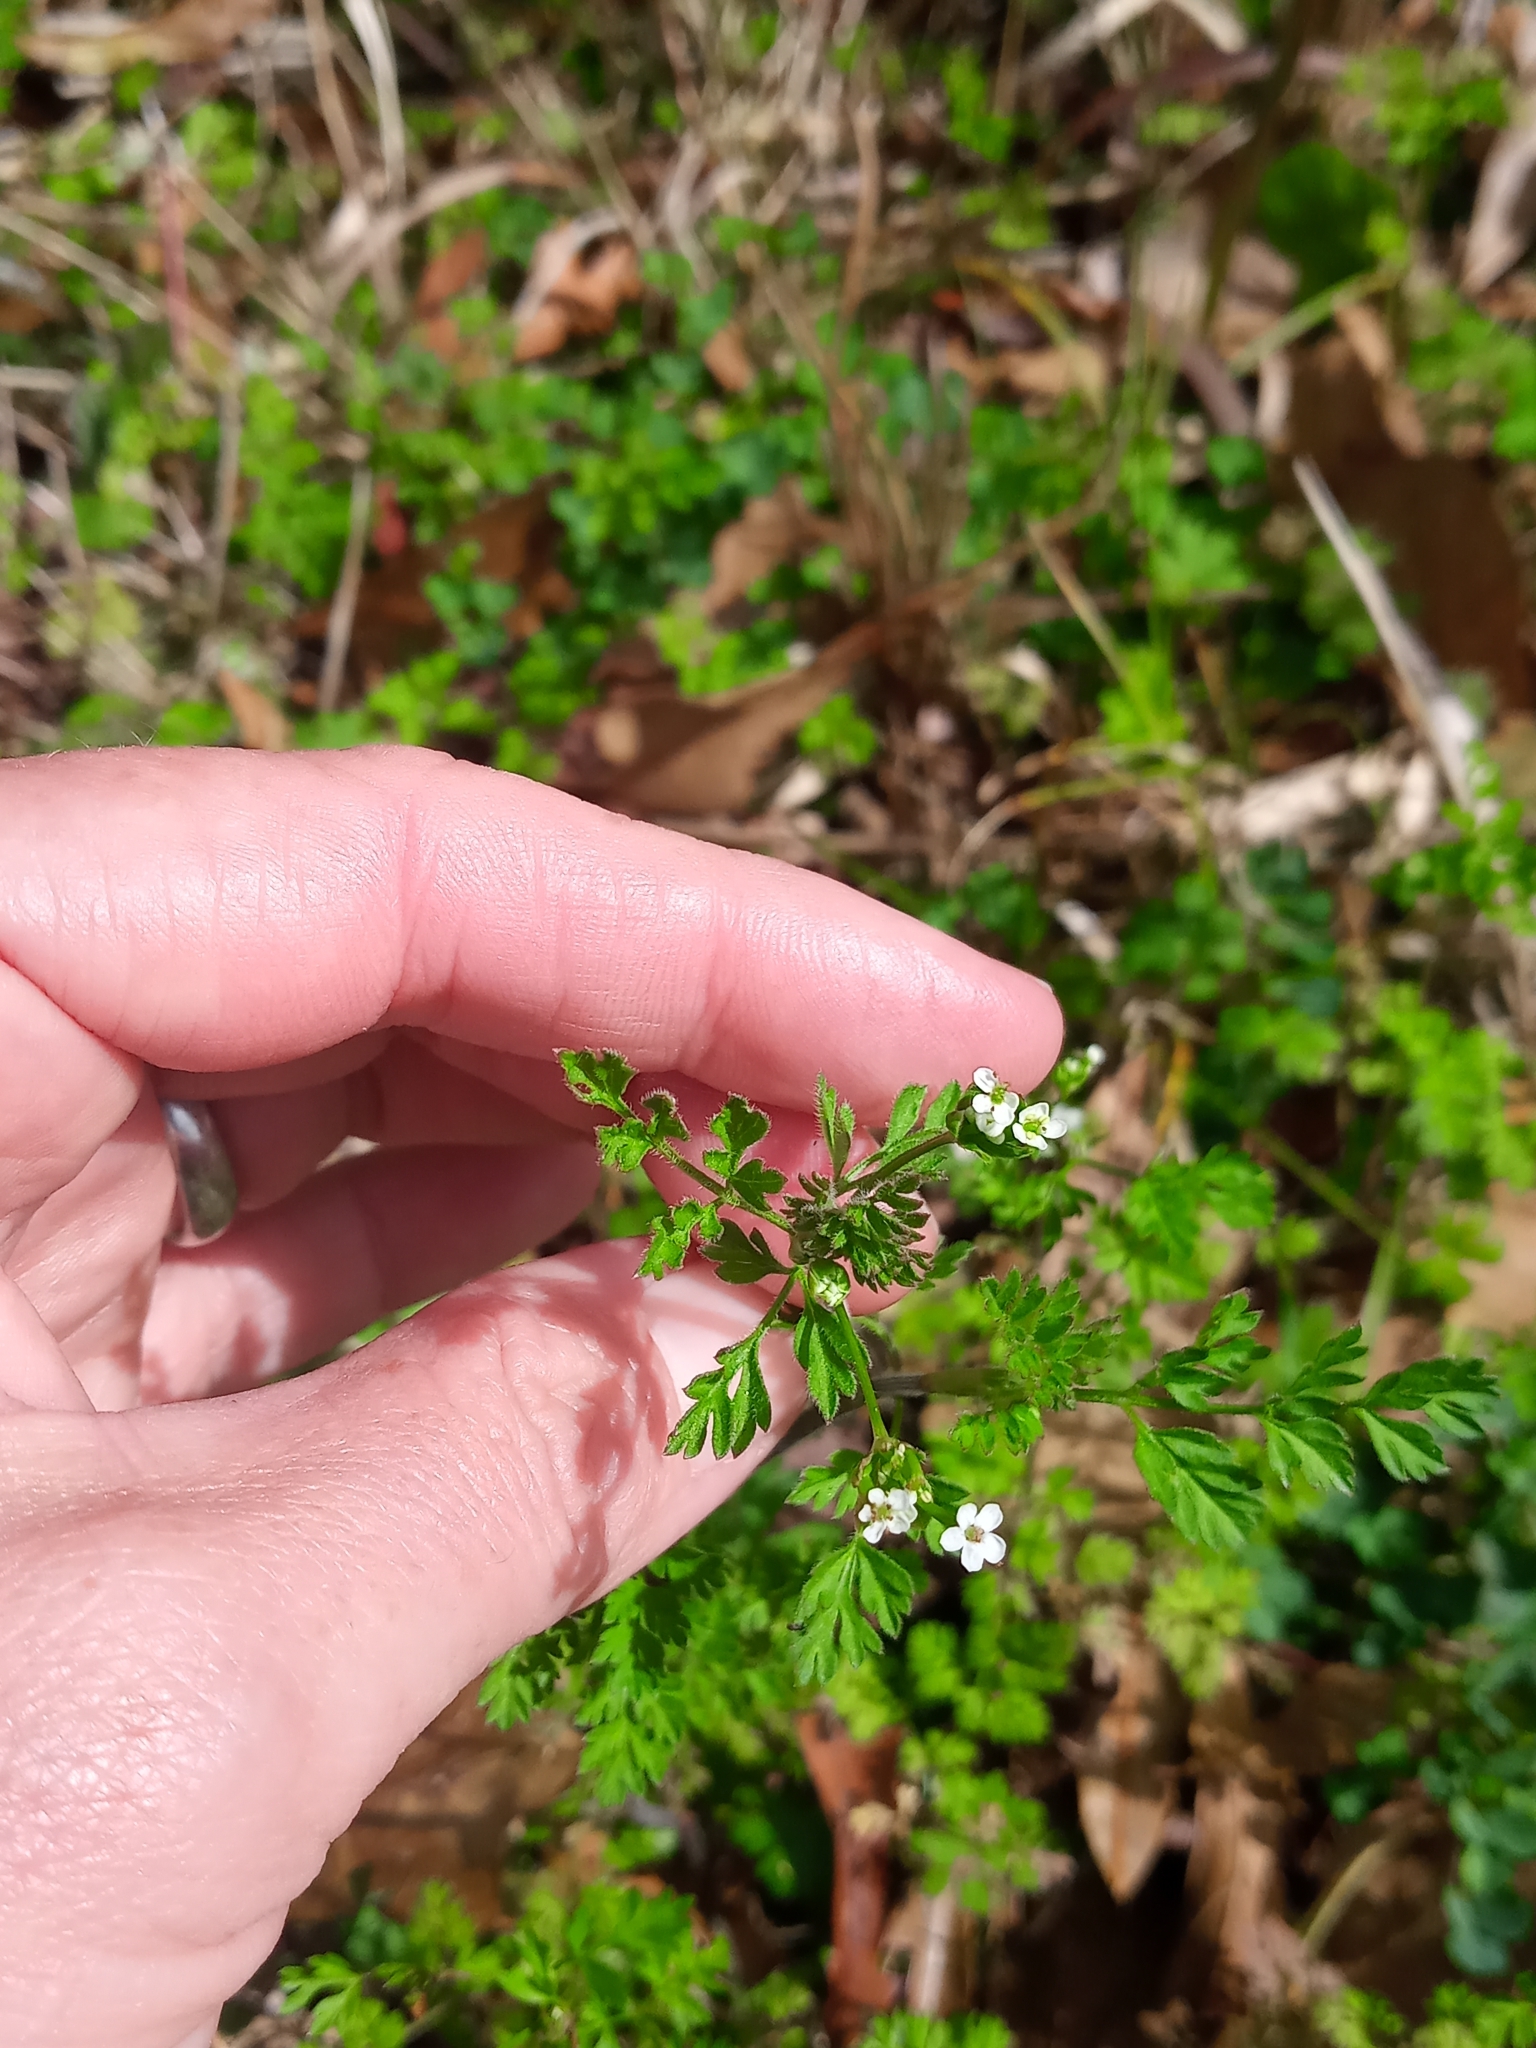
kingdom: Plantae
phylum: Tracheophyta
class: Magnoliopsida
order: Apiales
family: Apiaceae
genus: Chaerophyllum
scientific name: Chaerophyllum tainturieri
